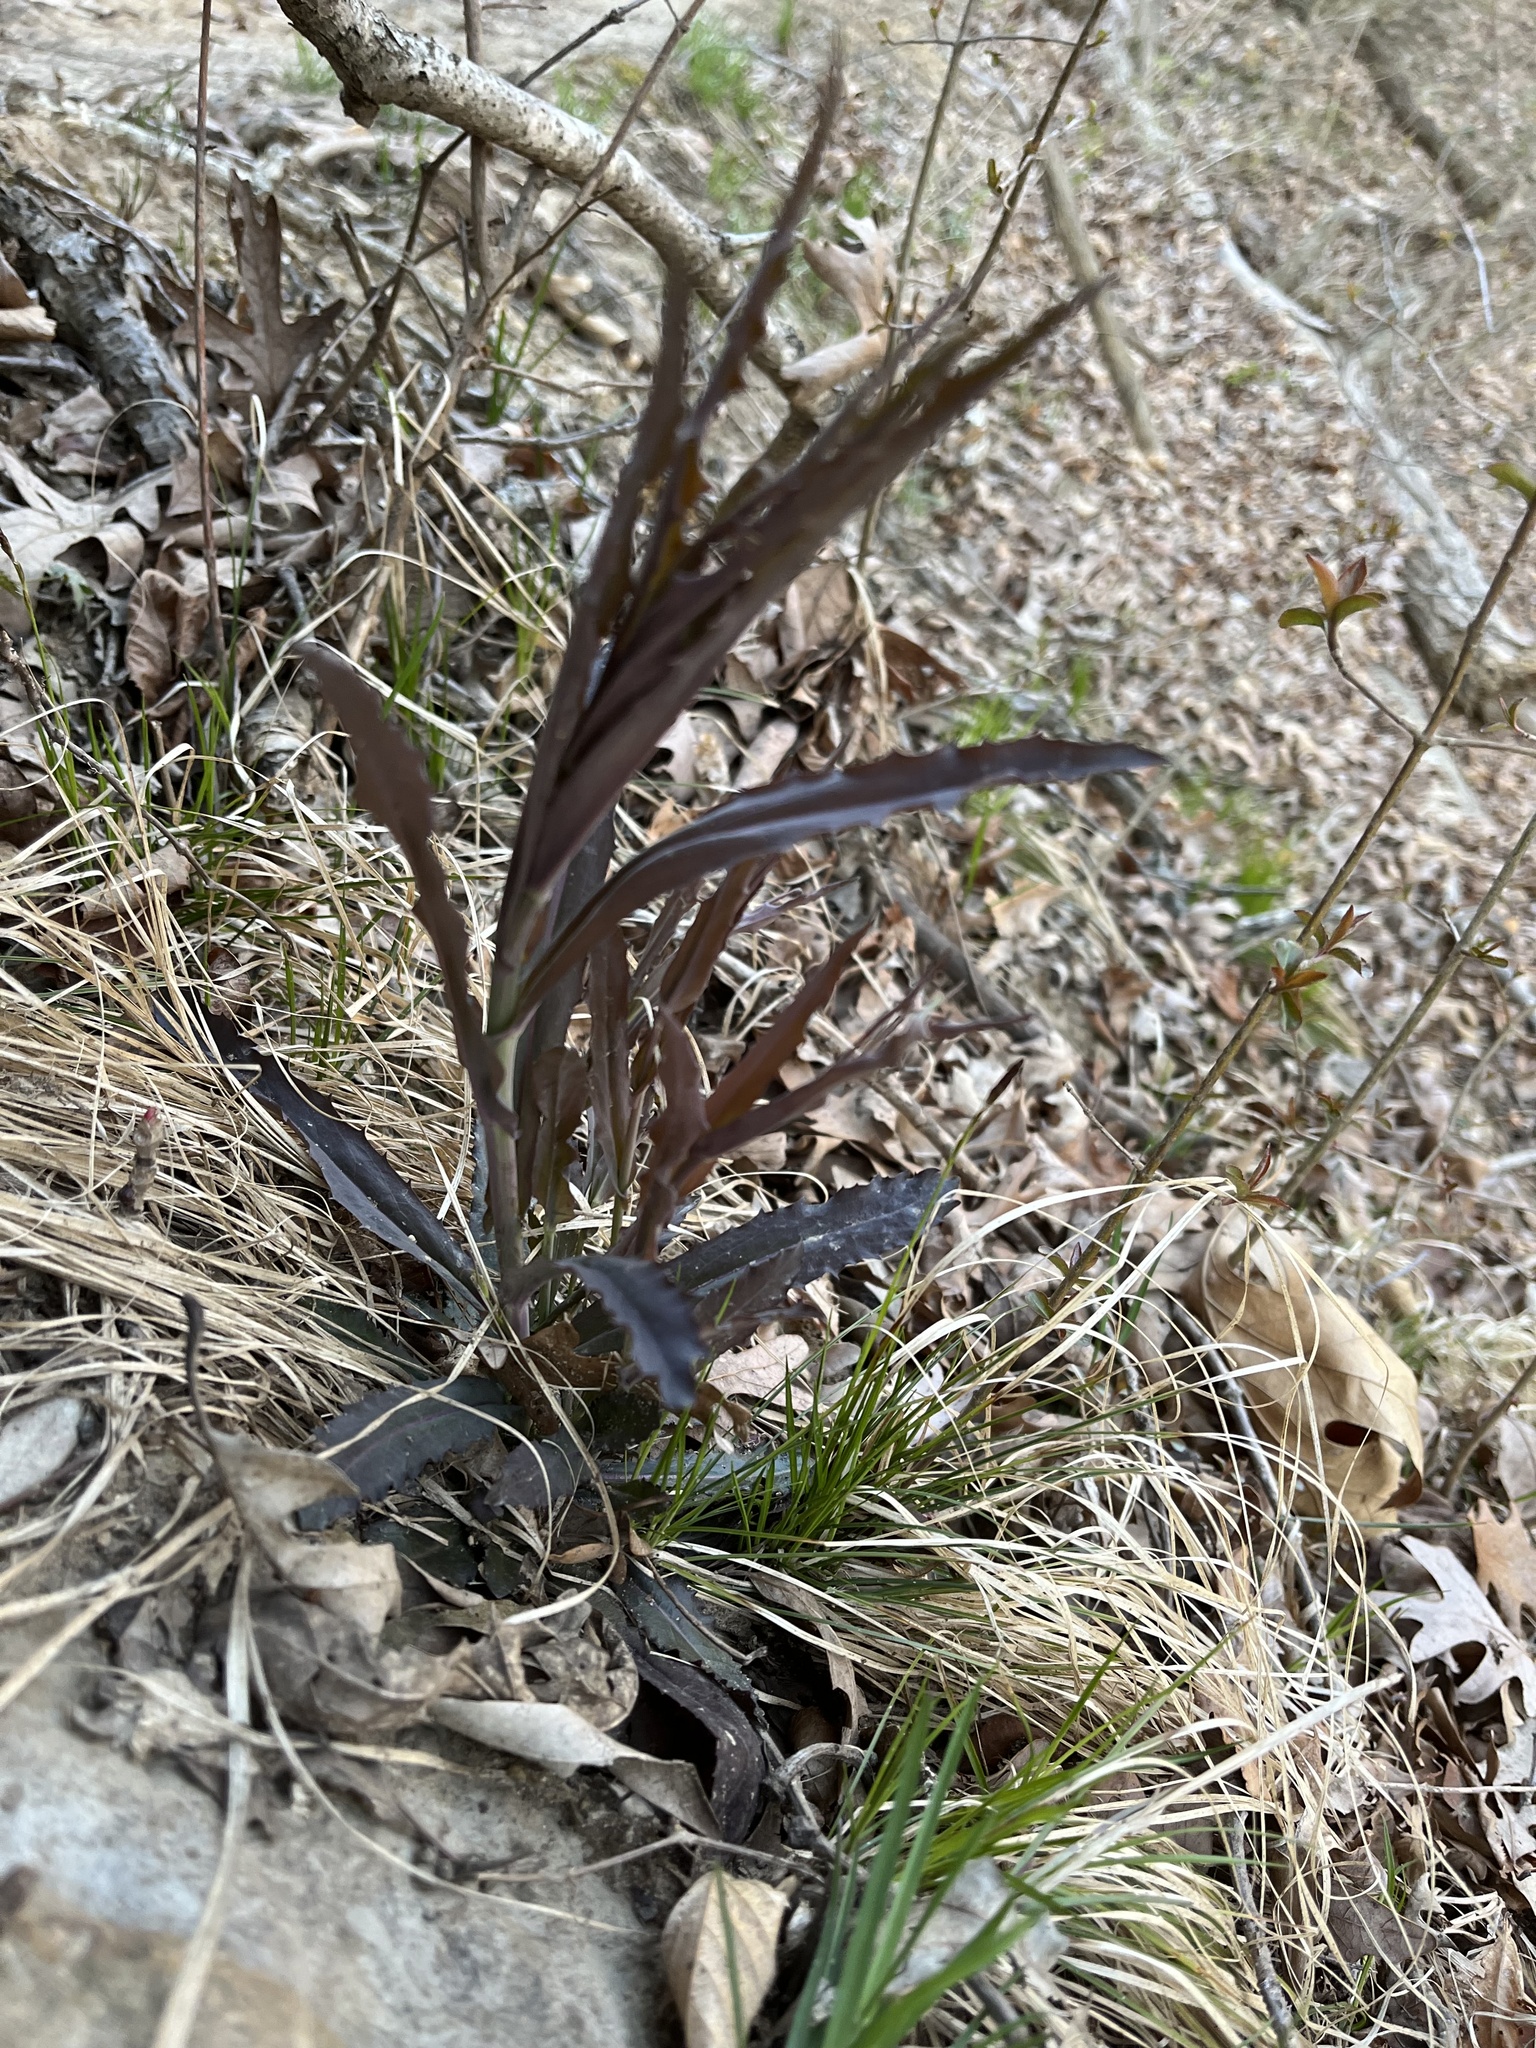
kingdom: Plantae
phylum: Tracheophyta
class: Magnoliopsida
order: Brassicales
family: Brassicaceae
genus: Borodinia
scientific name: Borodinia laevigata
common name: Smooth rockcress
